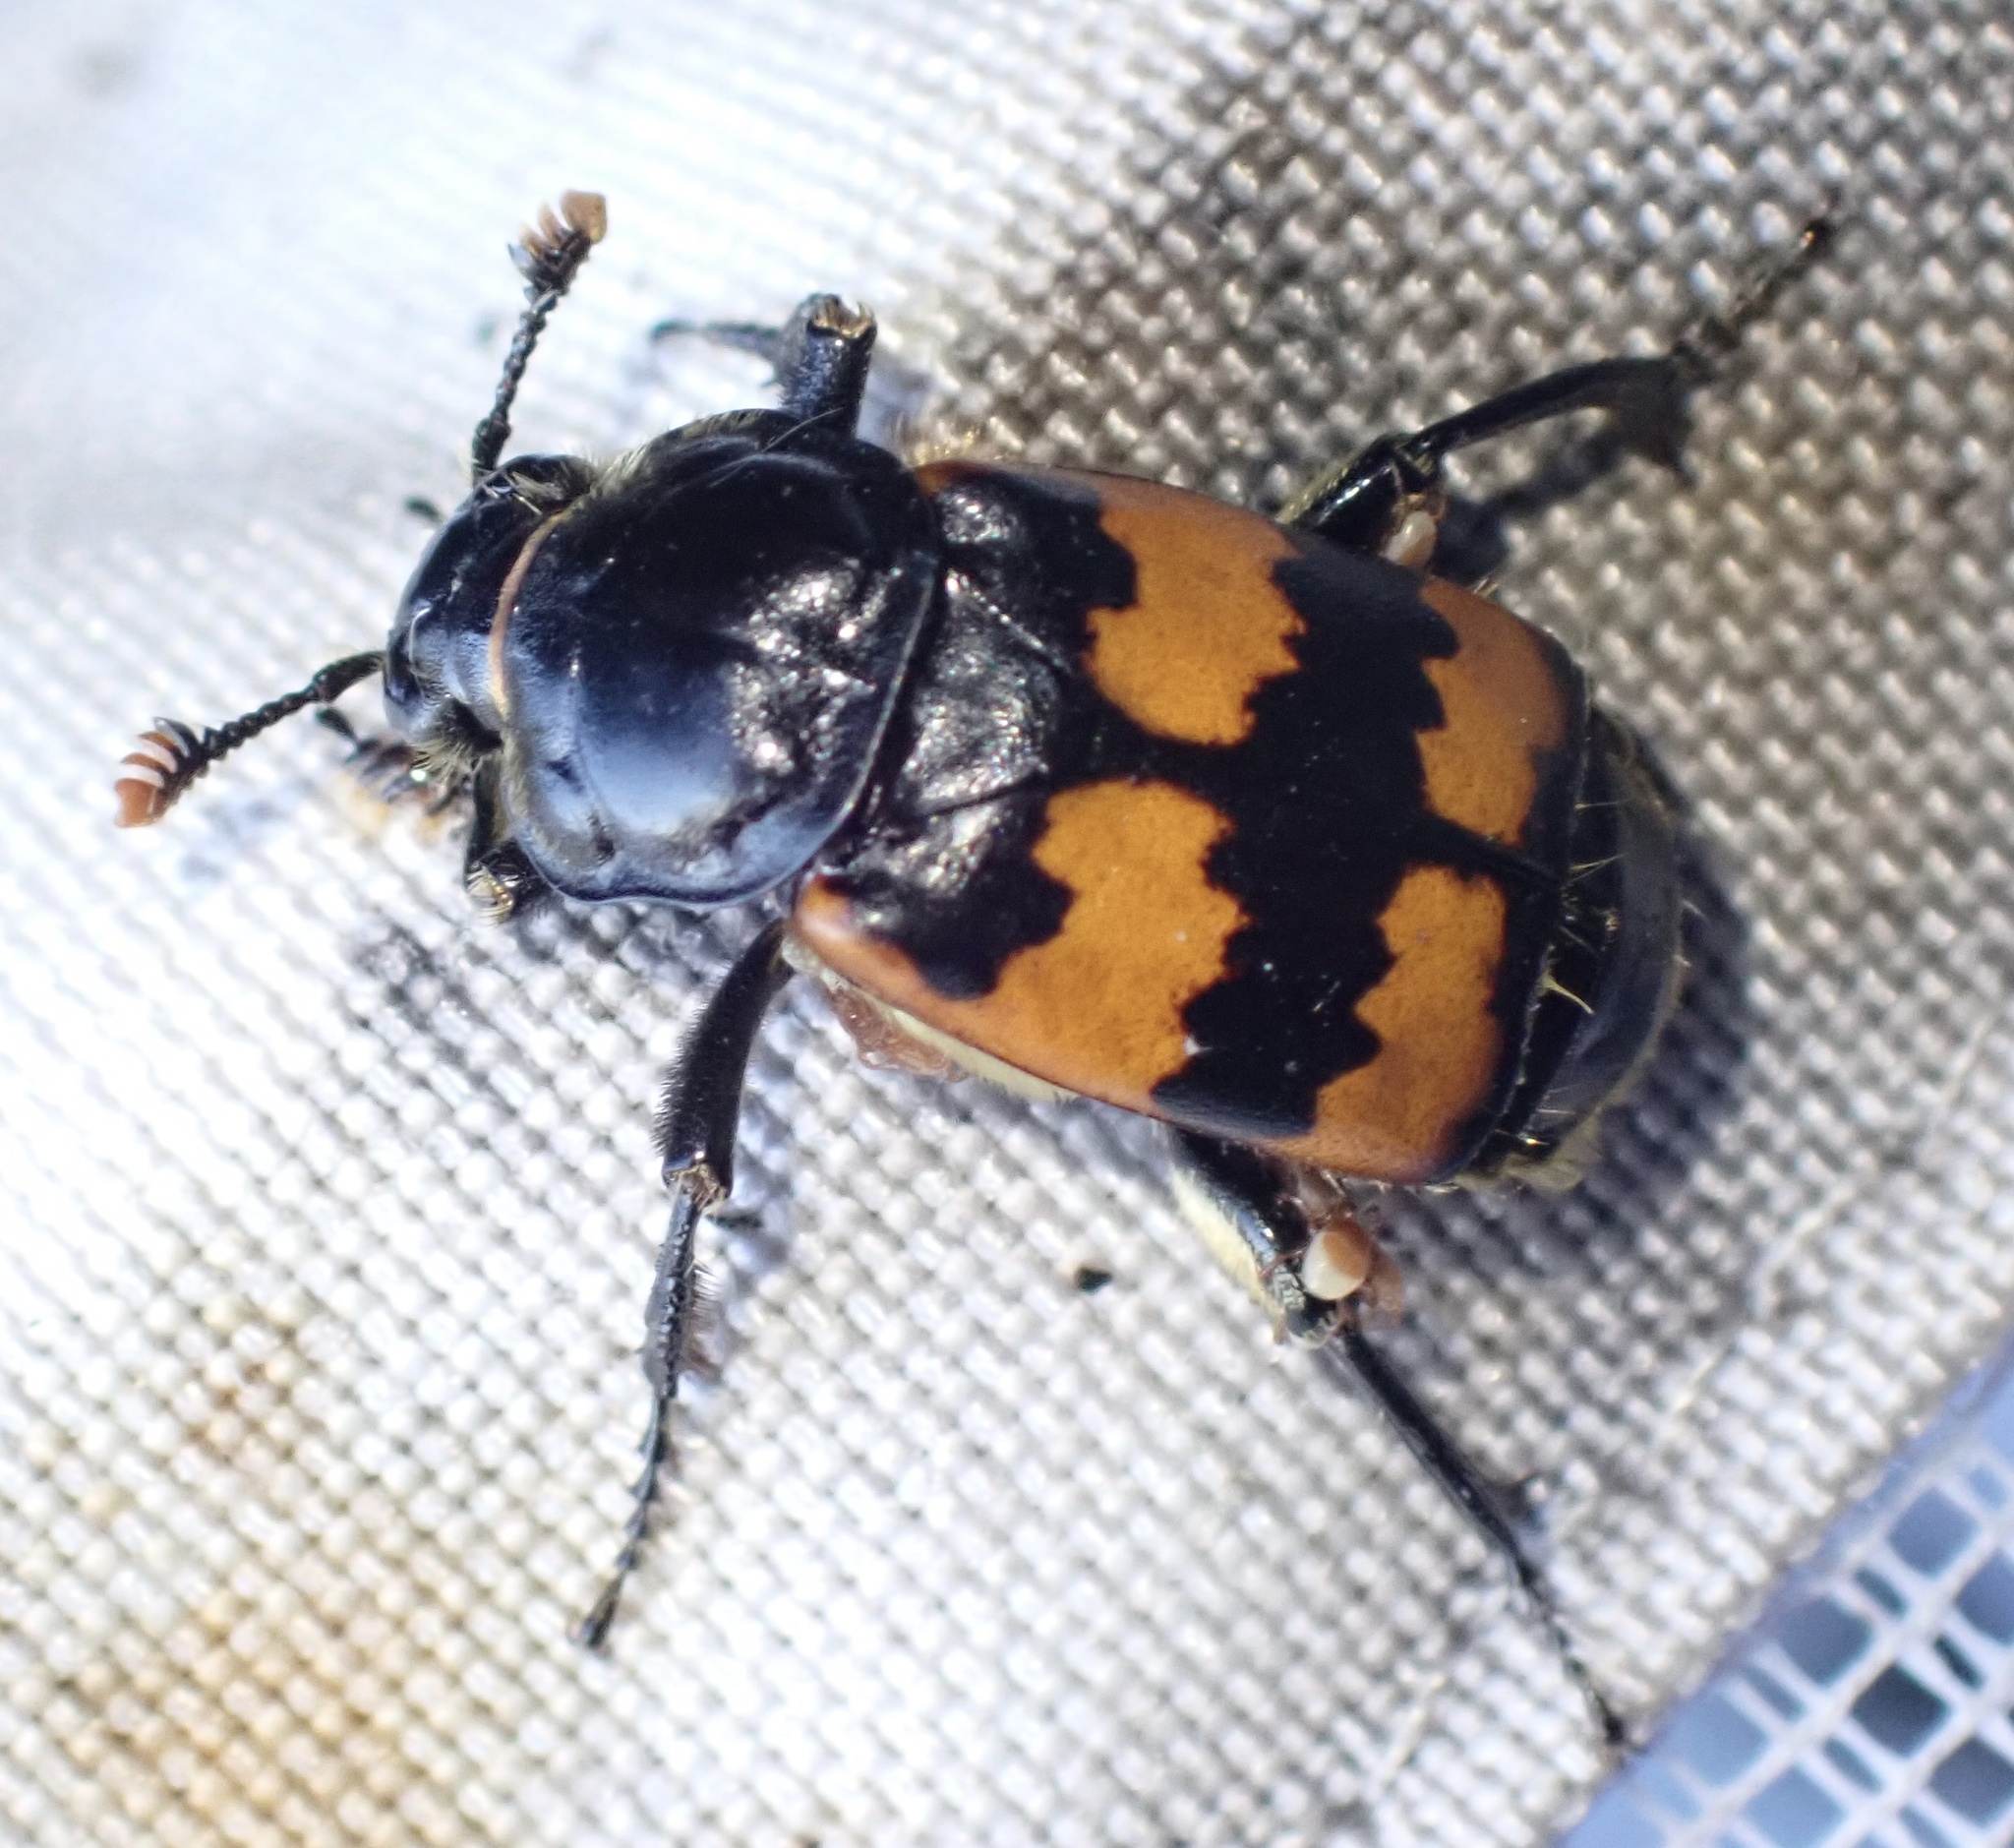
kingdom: Animalia
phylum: Arthropoda
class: Insecta
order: Coleoptera
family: Staphylinidae
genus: Nicrophorus
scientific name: Nicrophorus vespillo
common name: Common burying beetle
